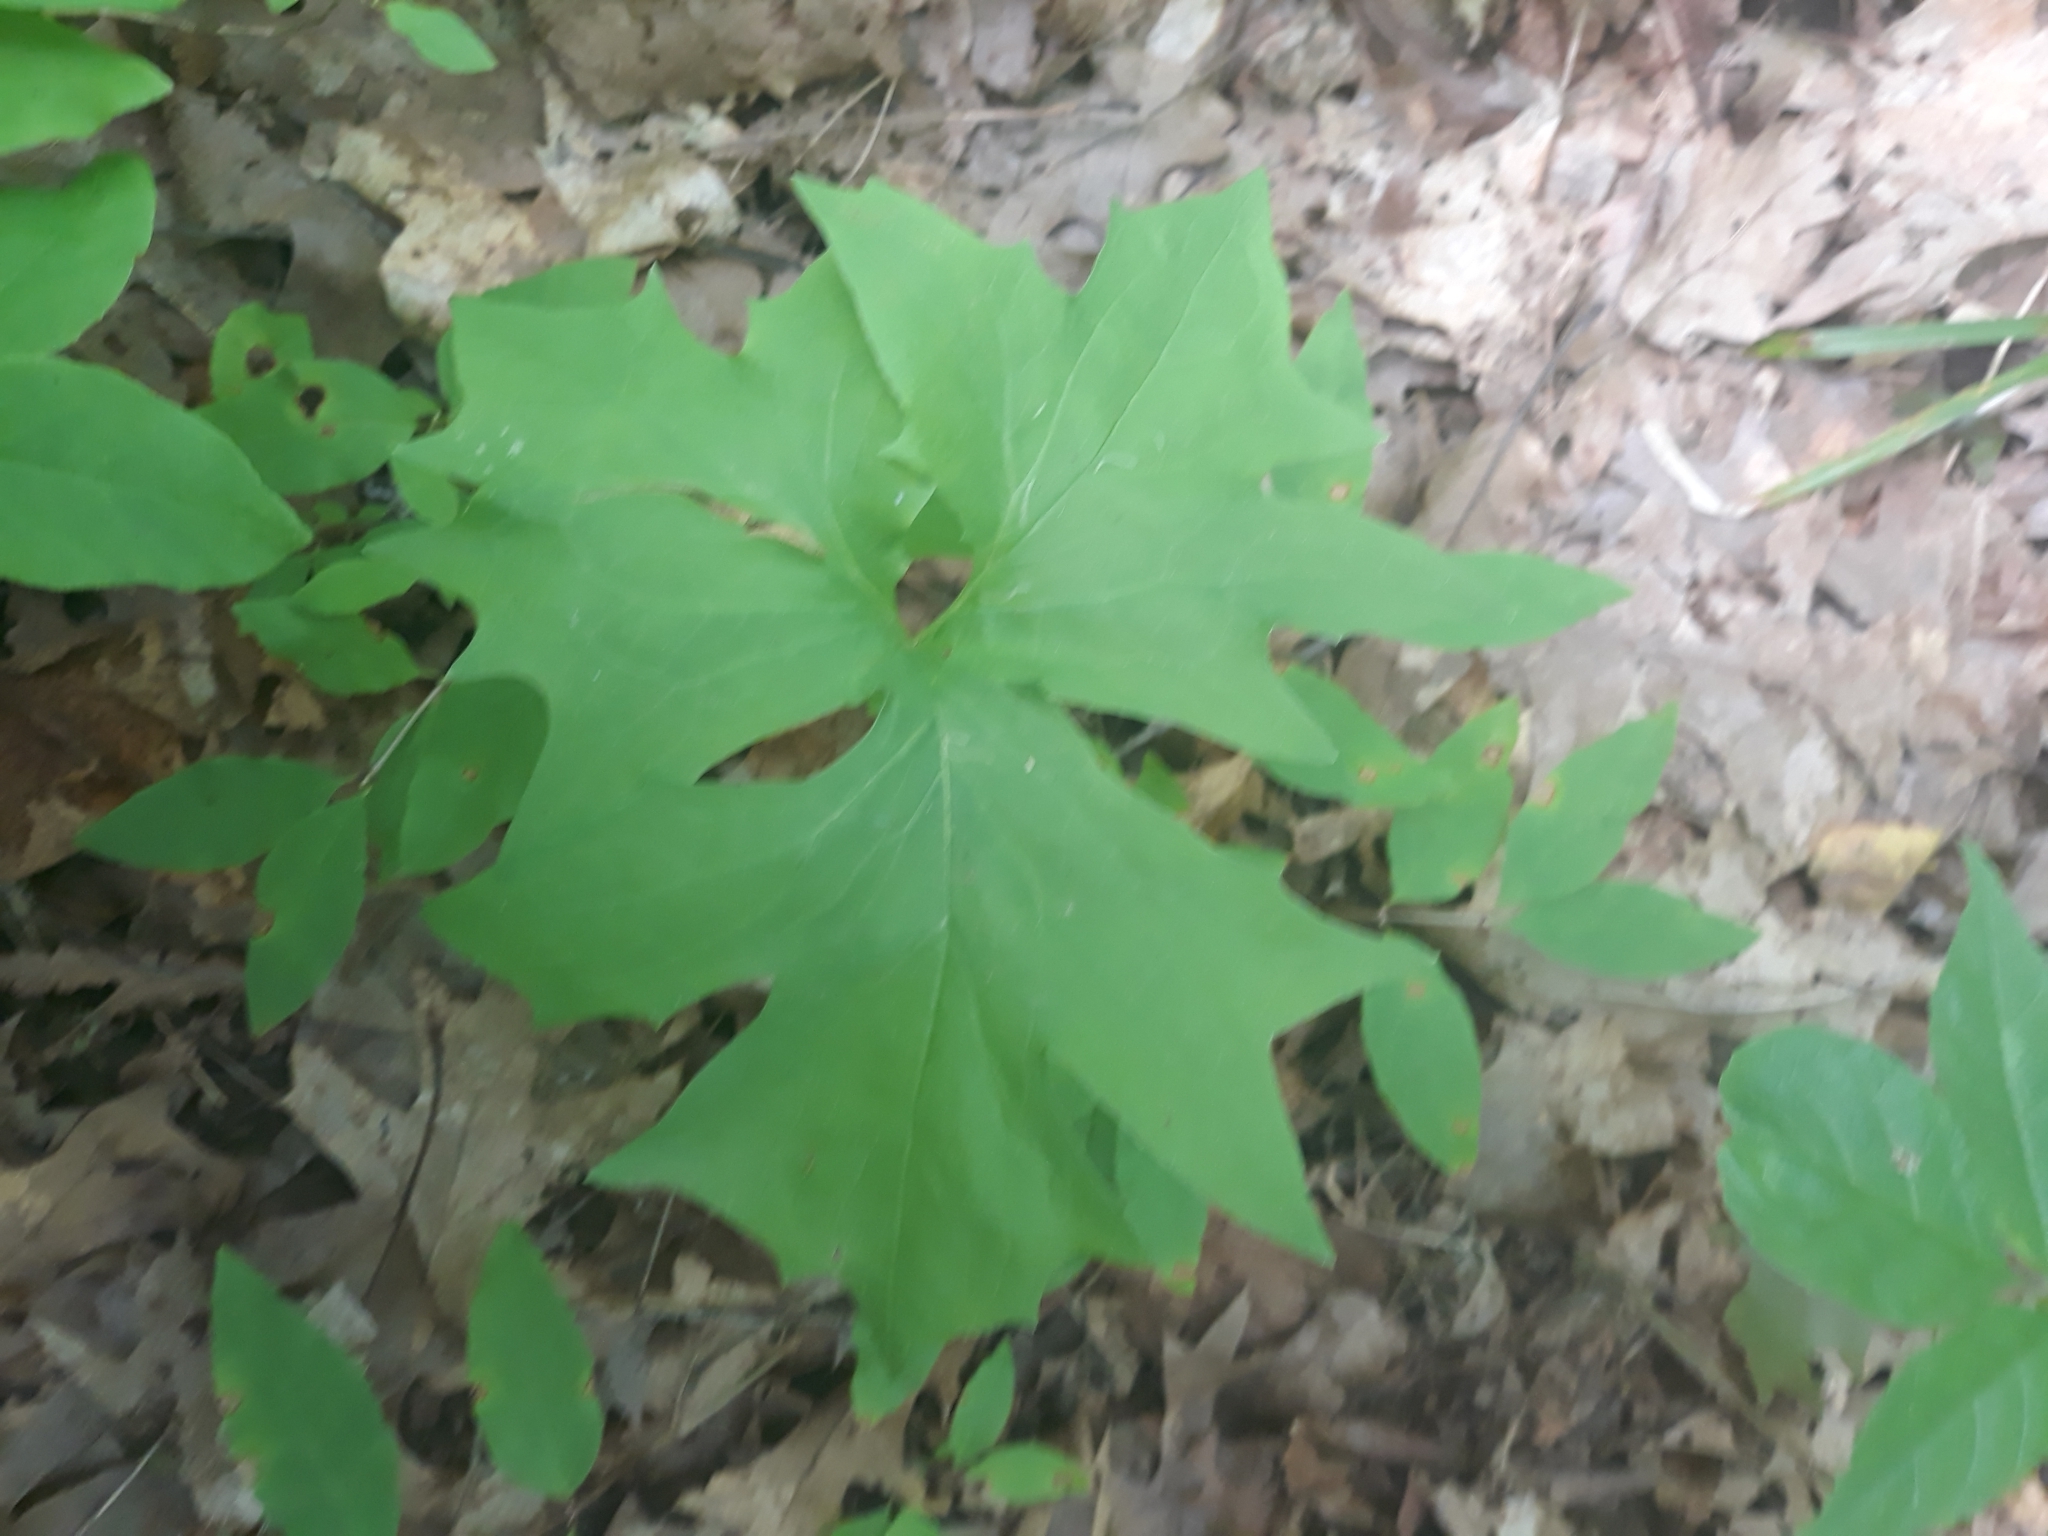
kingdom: Plantae
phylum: Tracheophyta
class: Magnoliopsida
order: Asterales
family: Asteraceae
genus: Nabalus
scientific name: Nabalus albus
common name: White rattlesnakeroot
